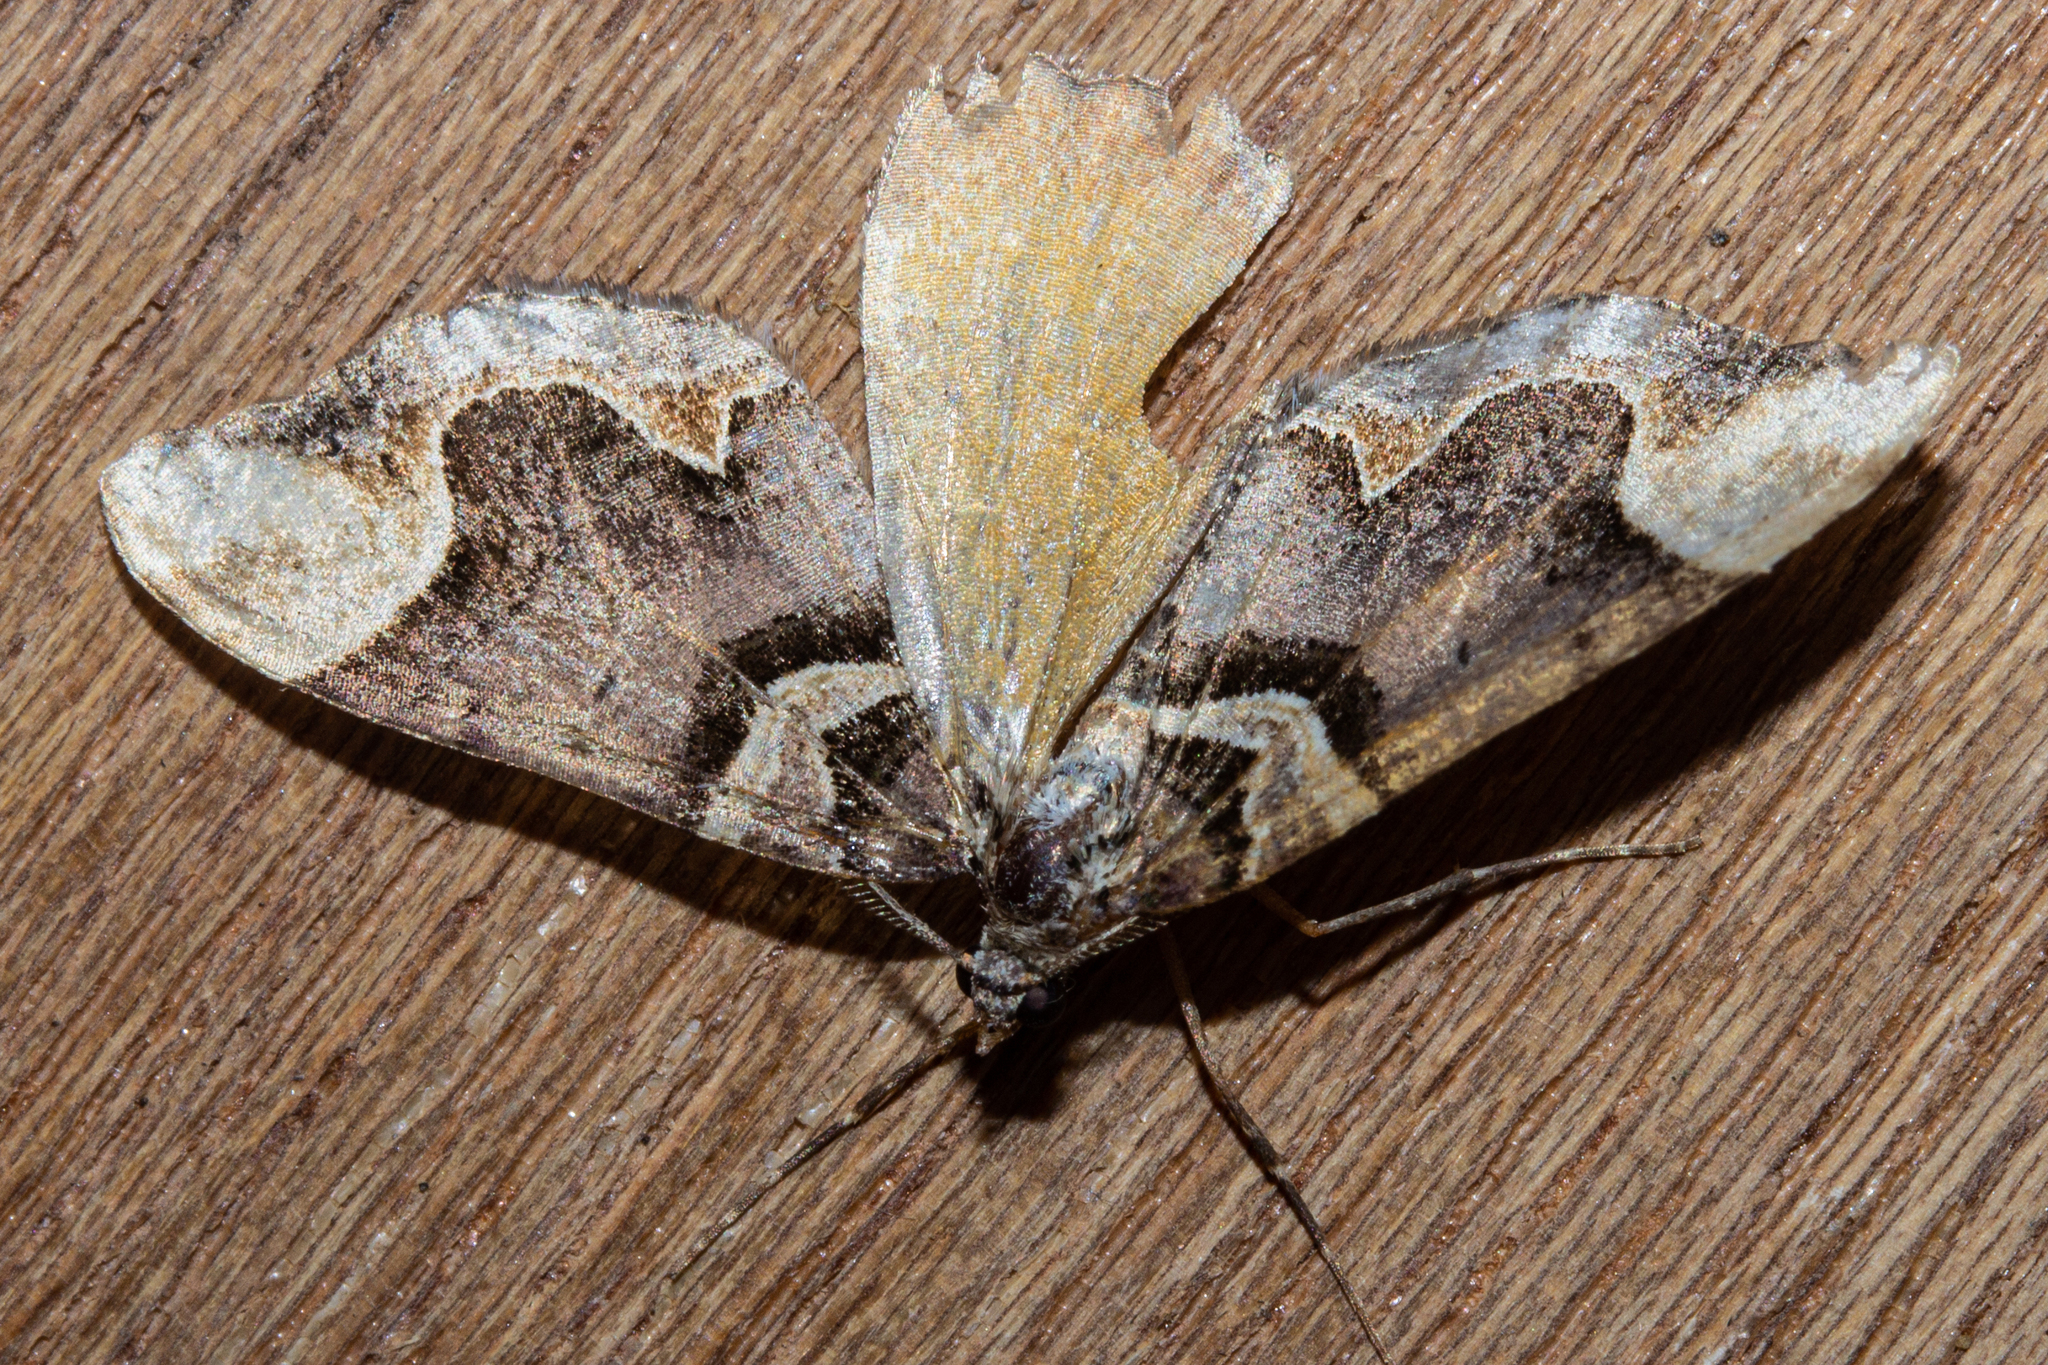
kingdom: Animalia
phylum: Arthropoda
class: Insecta
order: Lepidoptera
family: Geometridae
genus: Asaphodes
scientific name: Asaphodes chlamydota
